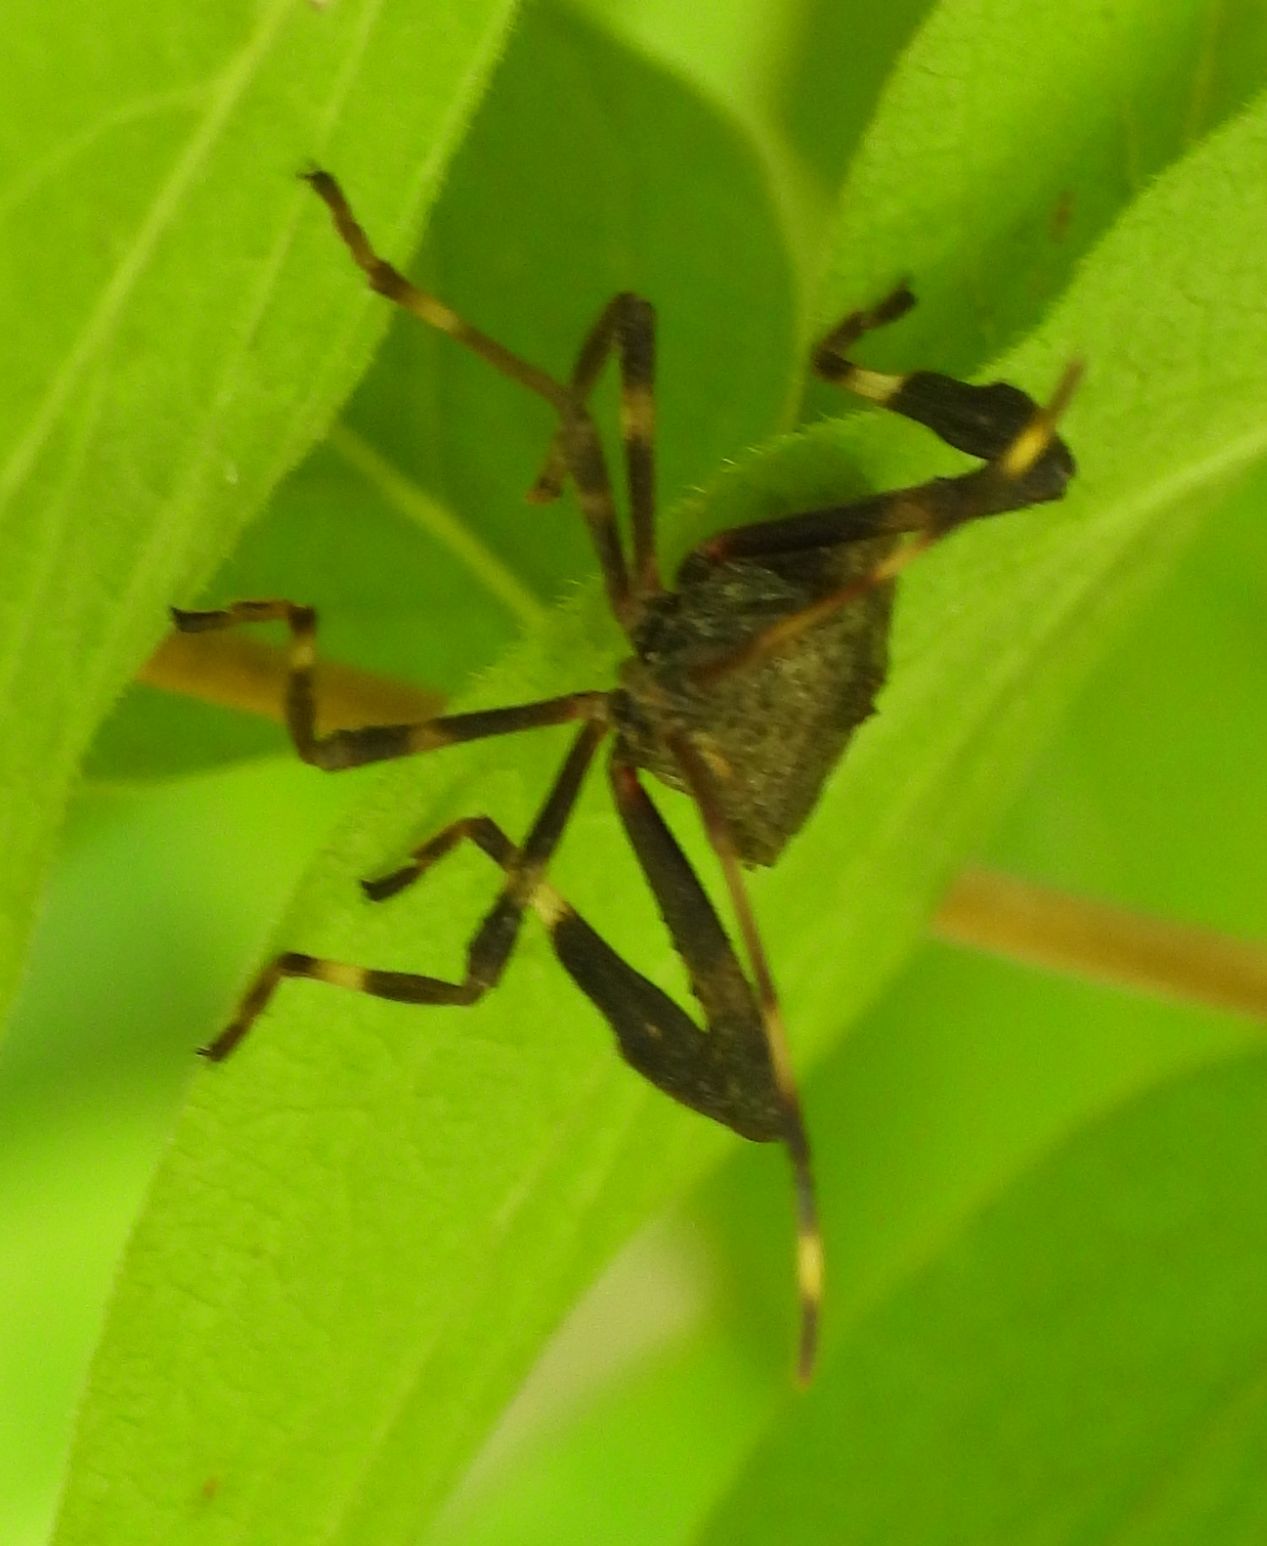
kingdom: Animalia
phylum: Arthropoda
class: Insecta
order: Hemiptera
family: Coreidae
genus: Acanthocephala
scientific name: Acanthocephala terminalis
